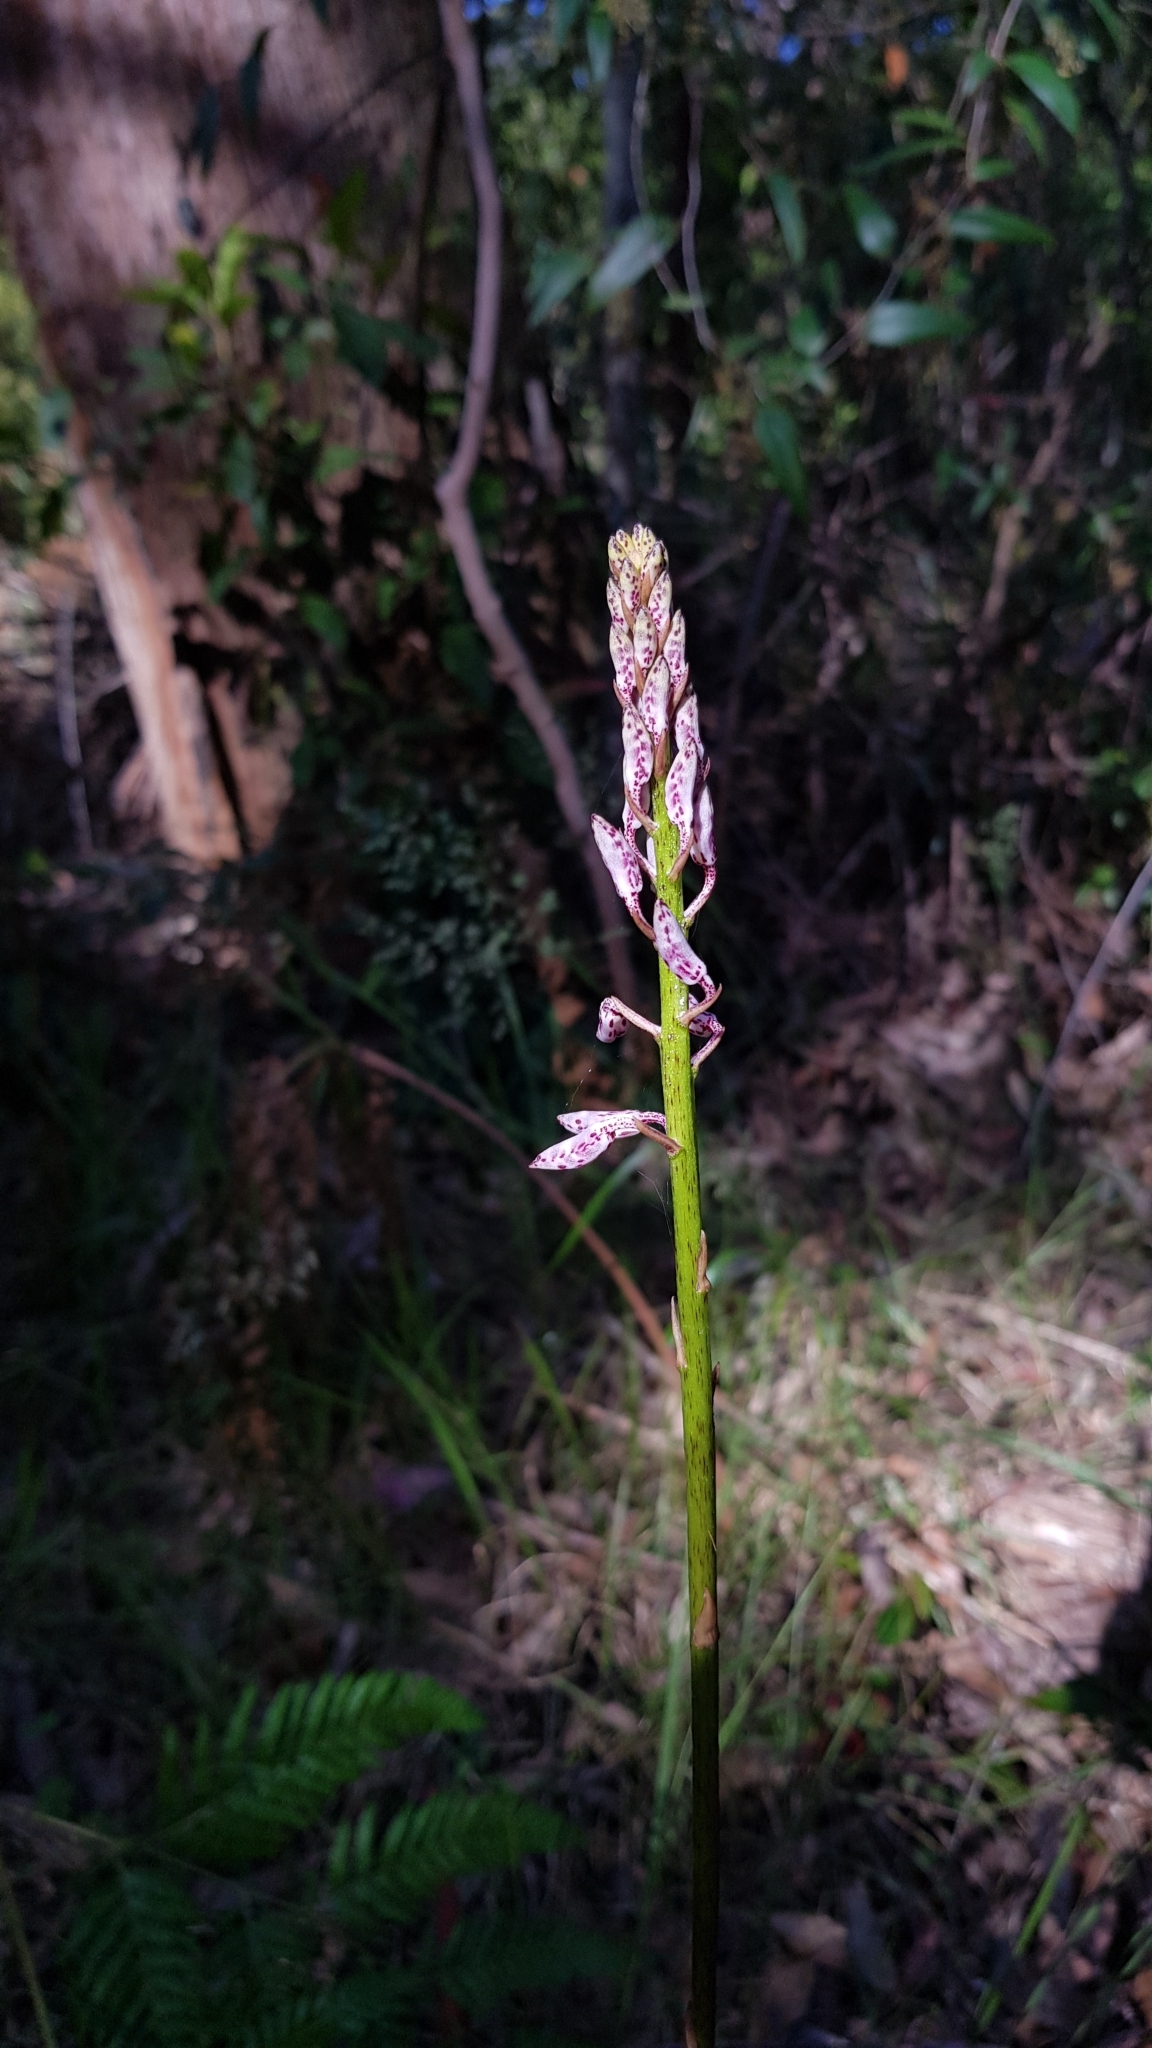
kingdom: Plantae
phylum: Tracheophyta
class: Liliopsida
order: Asparagales
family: Orchidaceae
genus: Dipodium
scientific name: Dipodium variegatum
